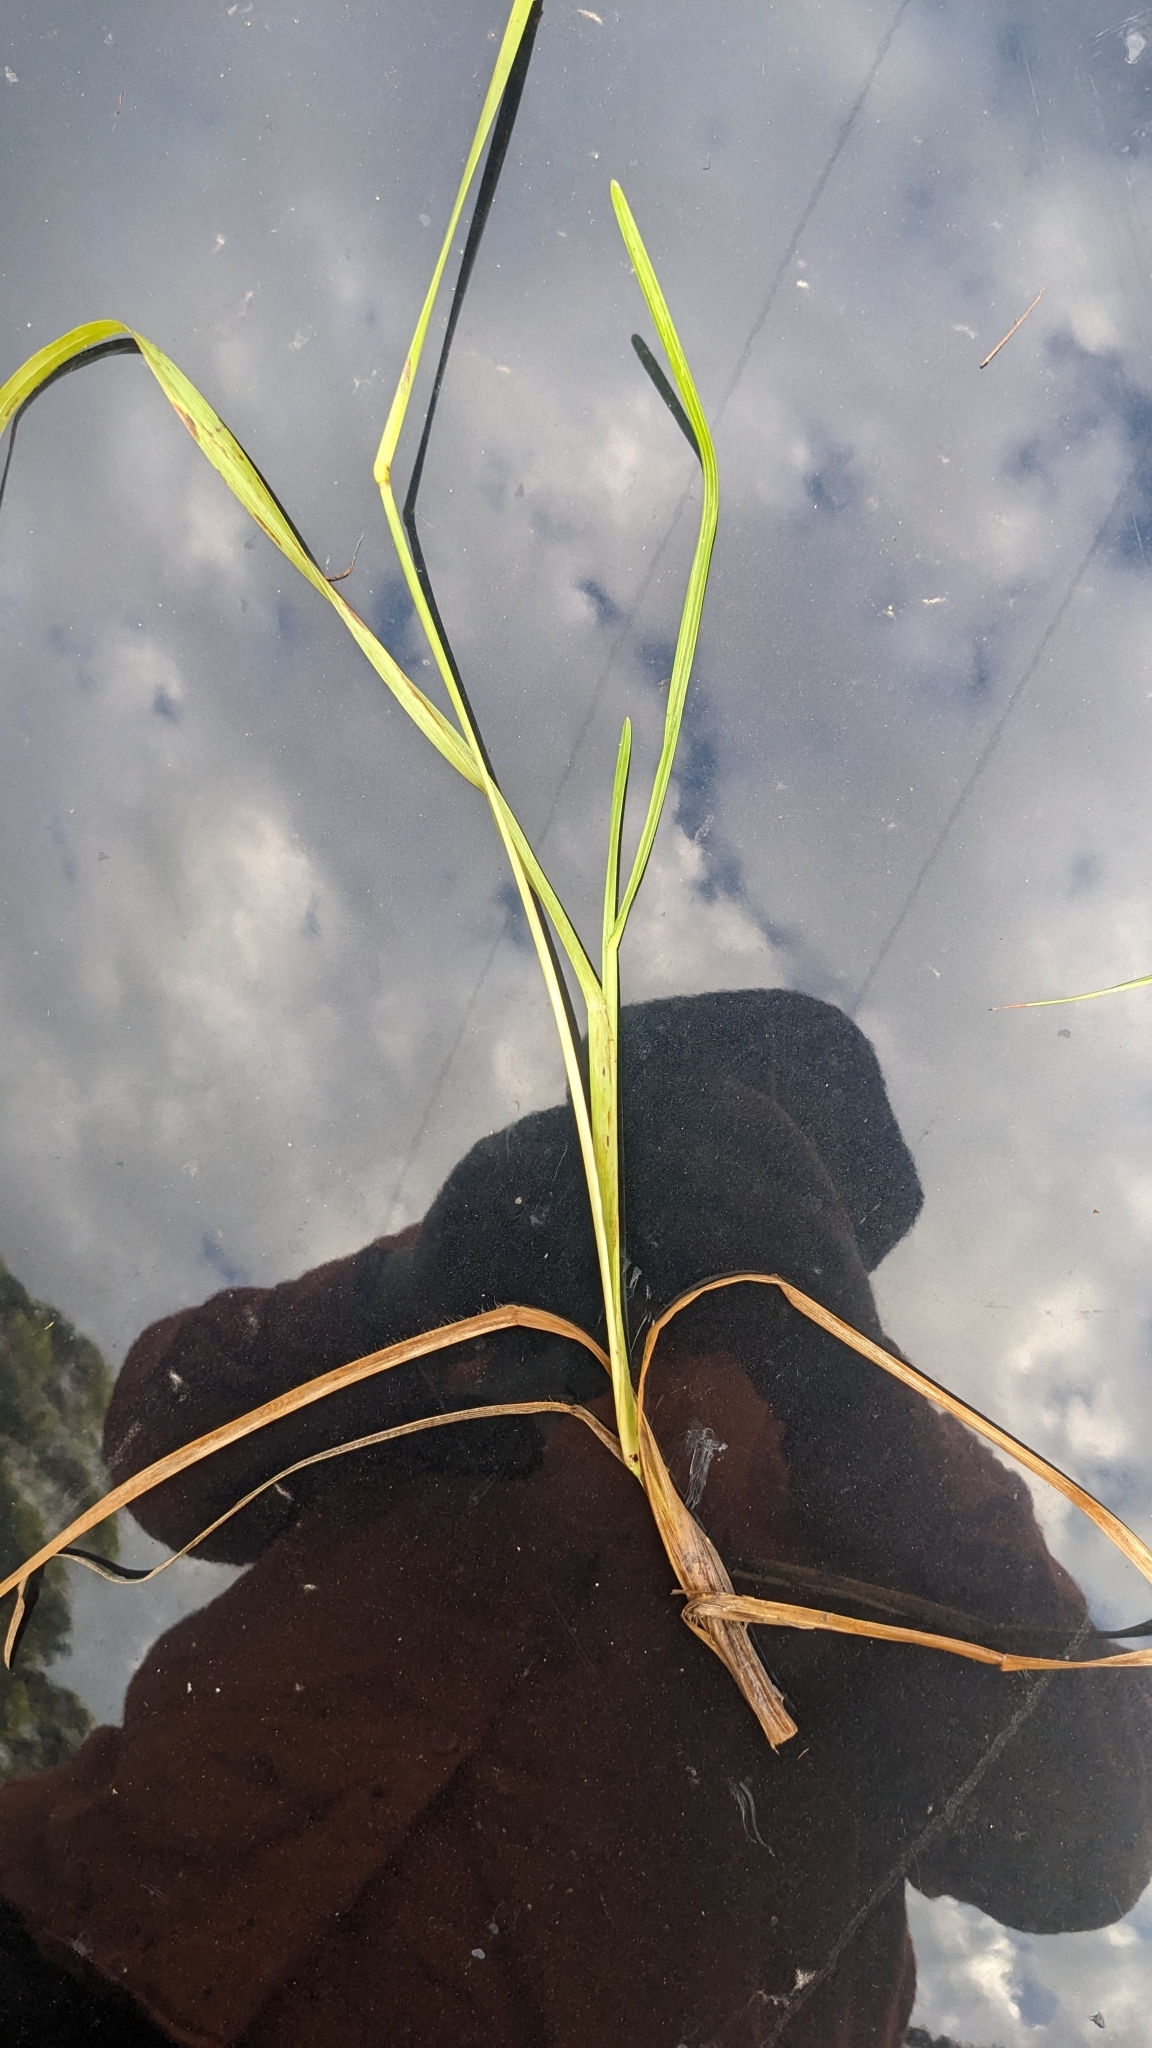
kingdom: Plantae
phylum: Tracheophyta
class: Liliopsida
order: Poales
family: Poaceae
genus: Axonopus
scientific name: Axonopus fissifolius
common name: Common carpetgrass
